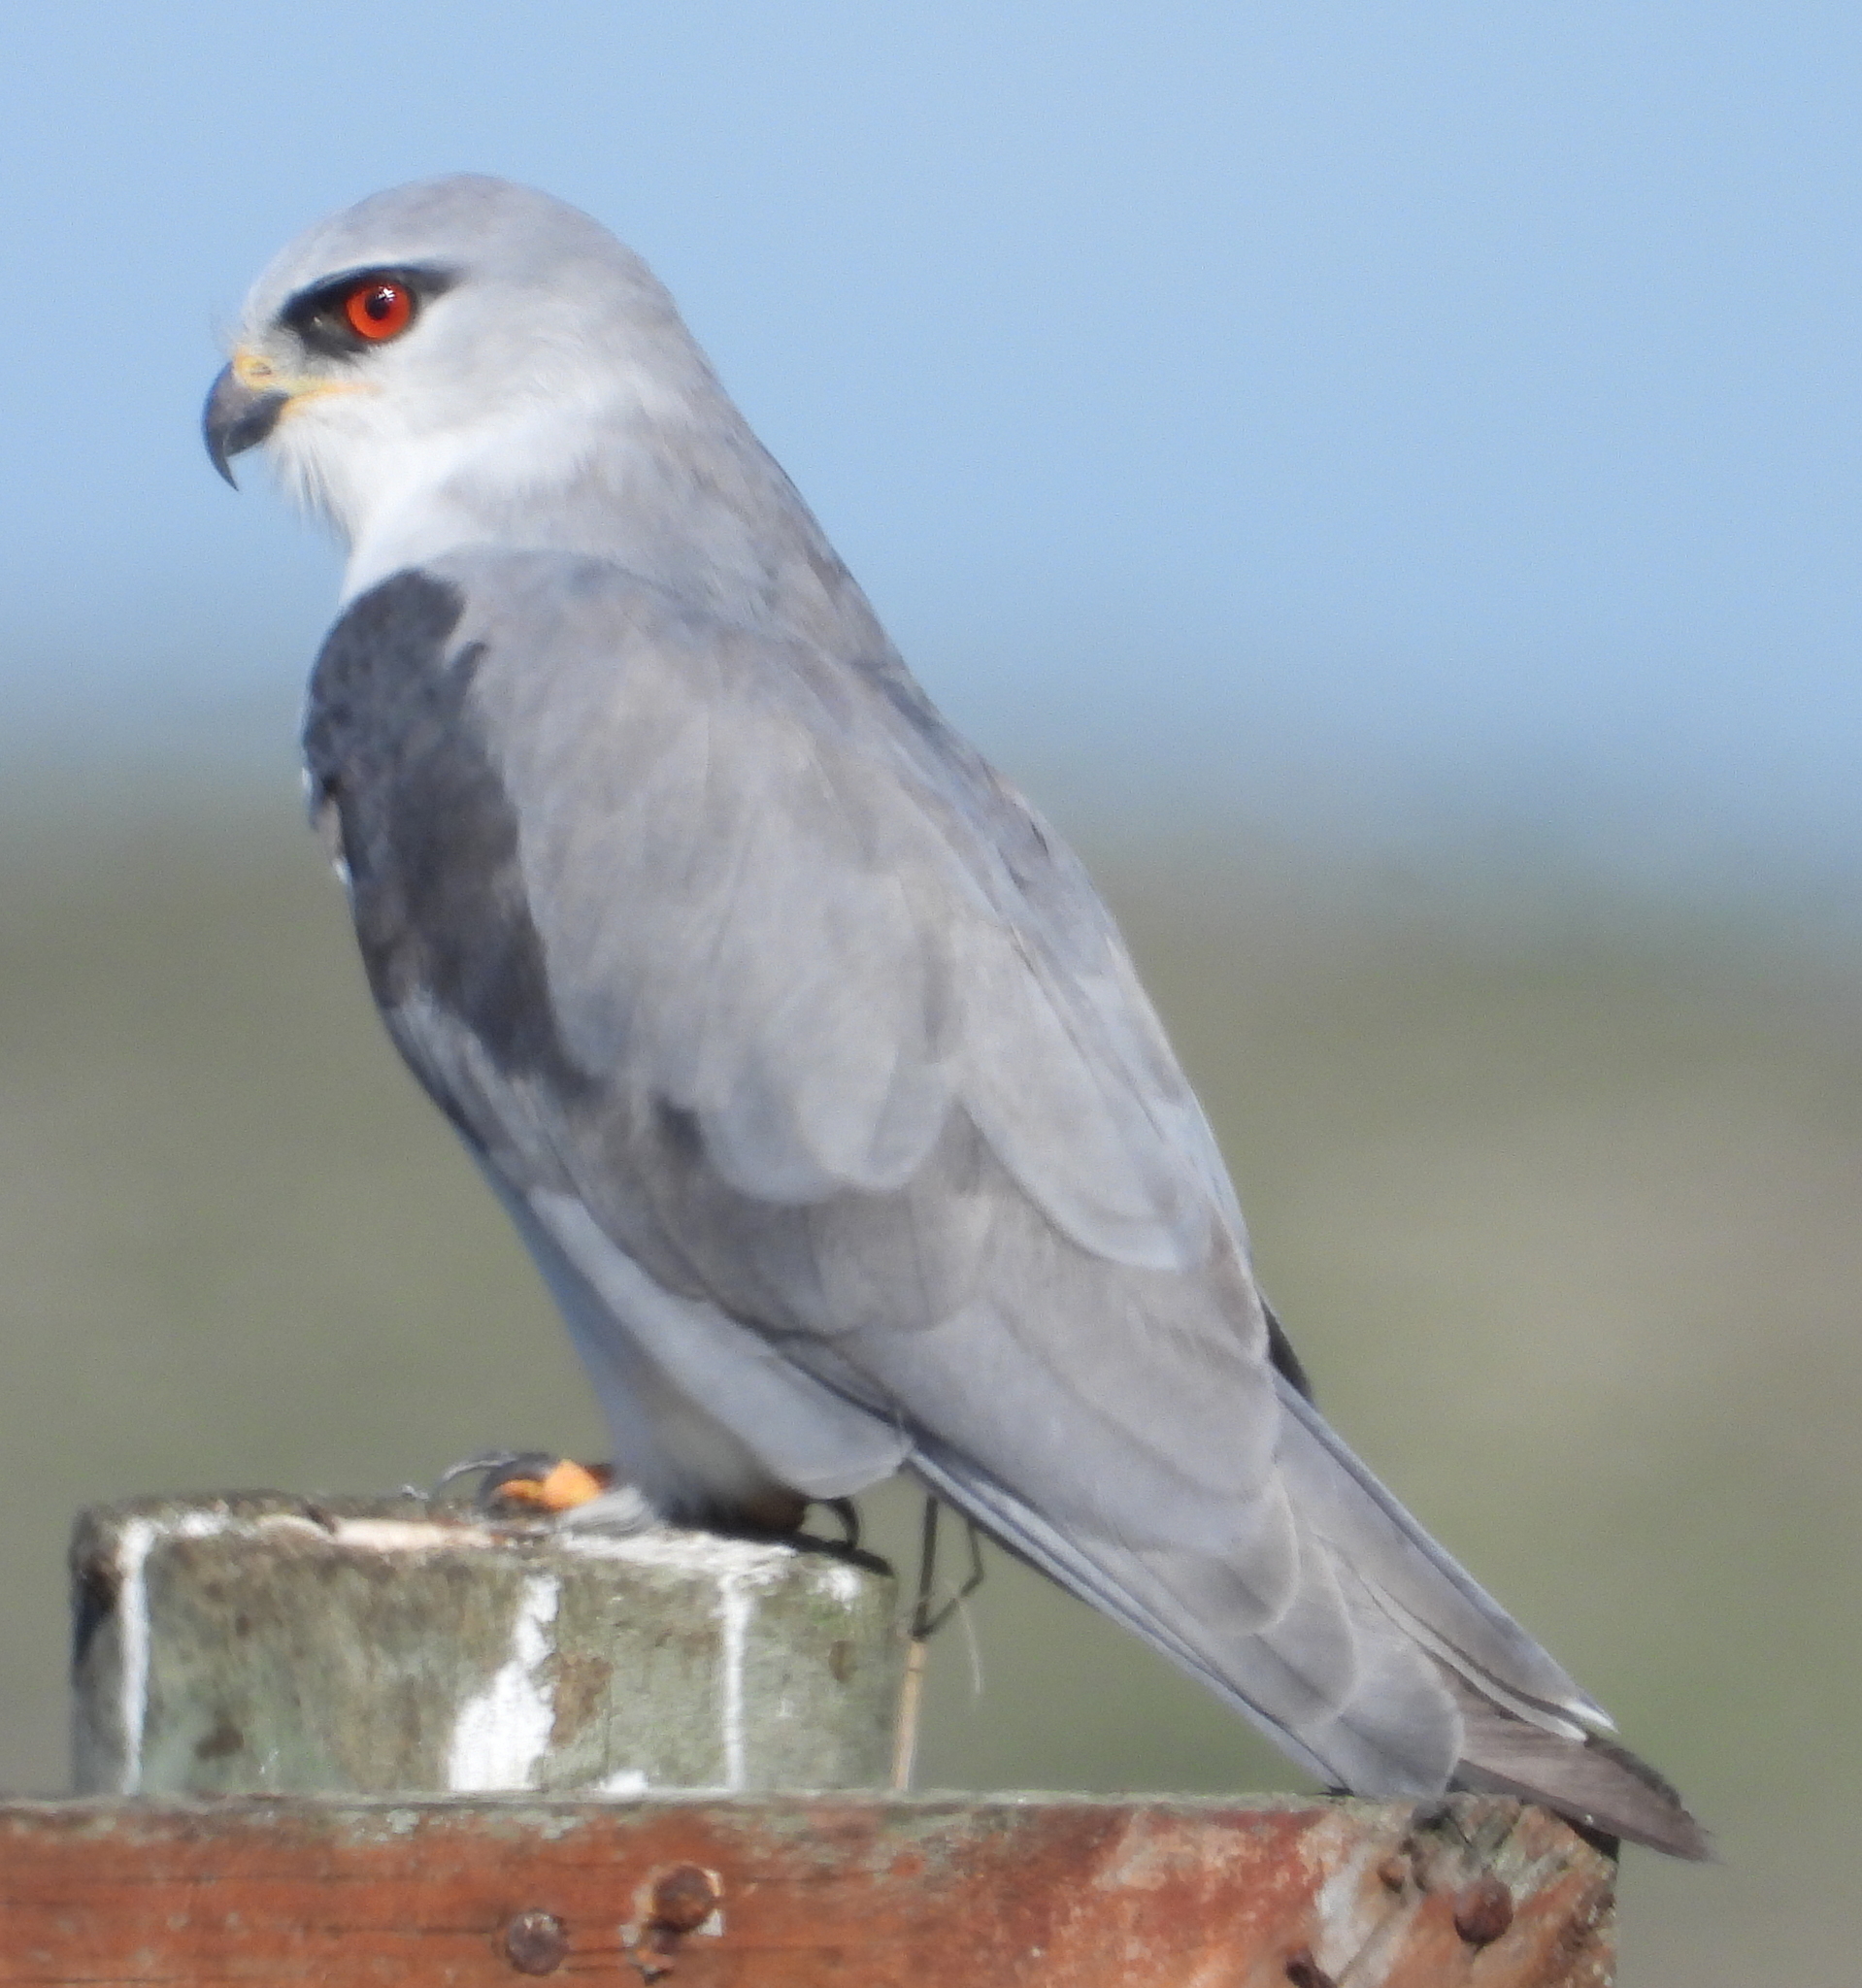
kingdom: Animalia
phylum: Chordata
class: Aves
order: Accipitriformes
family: Accipitridae
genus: Elanus
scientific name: Elanus caeruleus
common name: Black-winged kite
